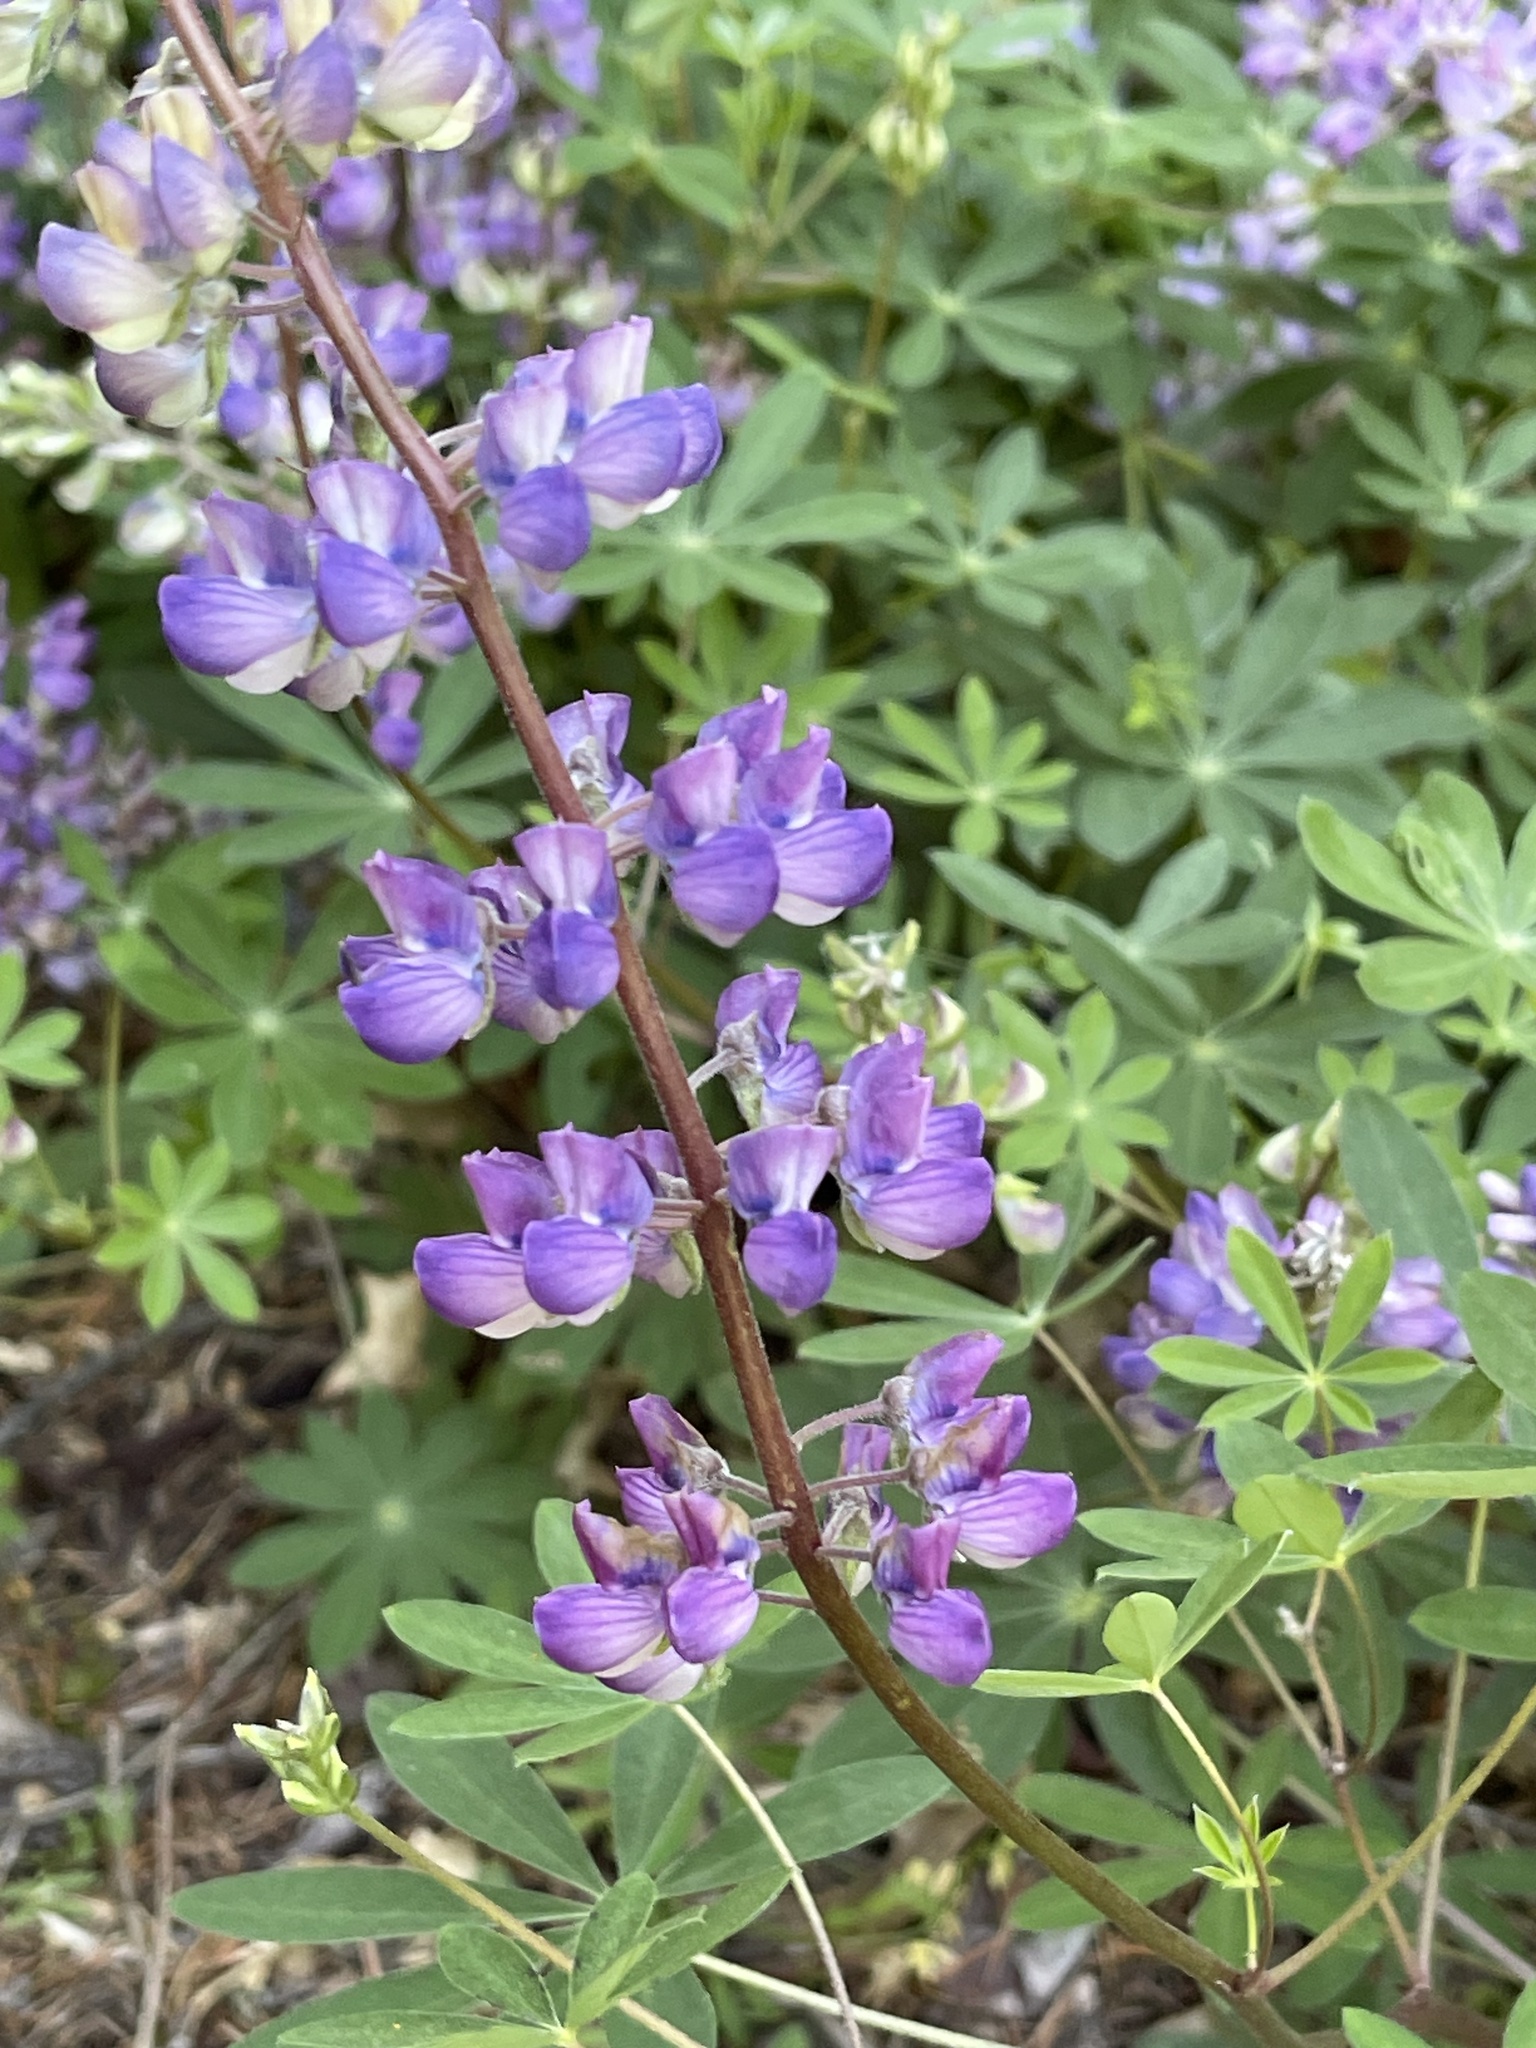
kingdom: Plantae
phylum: Tracheophyta
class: Magnoliopsida
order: Fabales
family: Fabaceae
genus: Lupinus
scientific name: Lupinus latifolius
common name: Broad-leaved lupine
